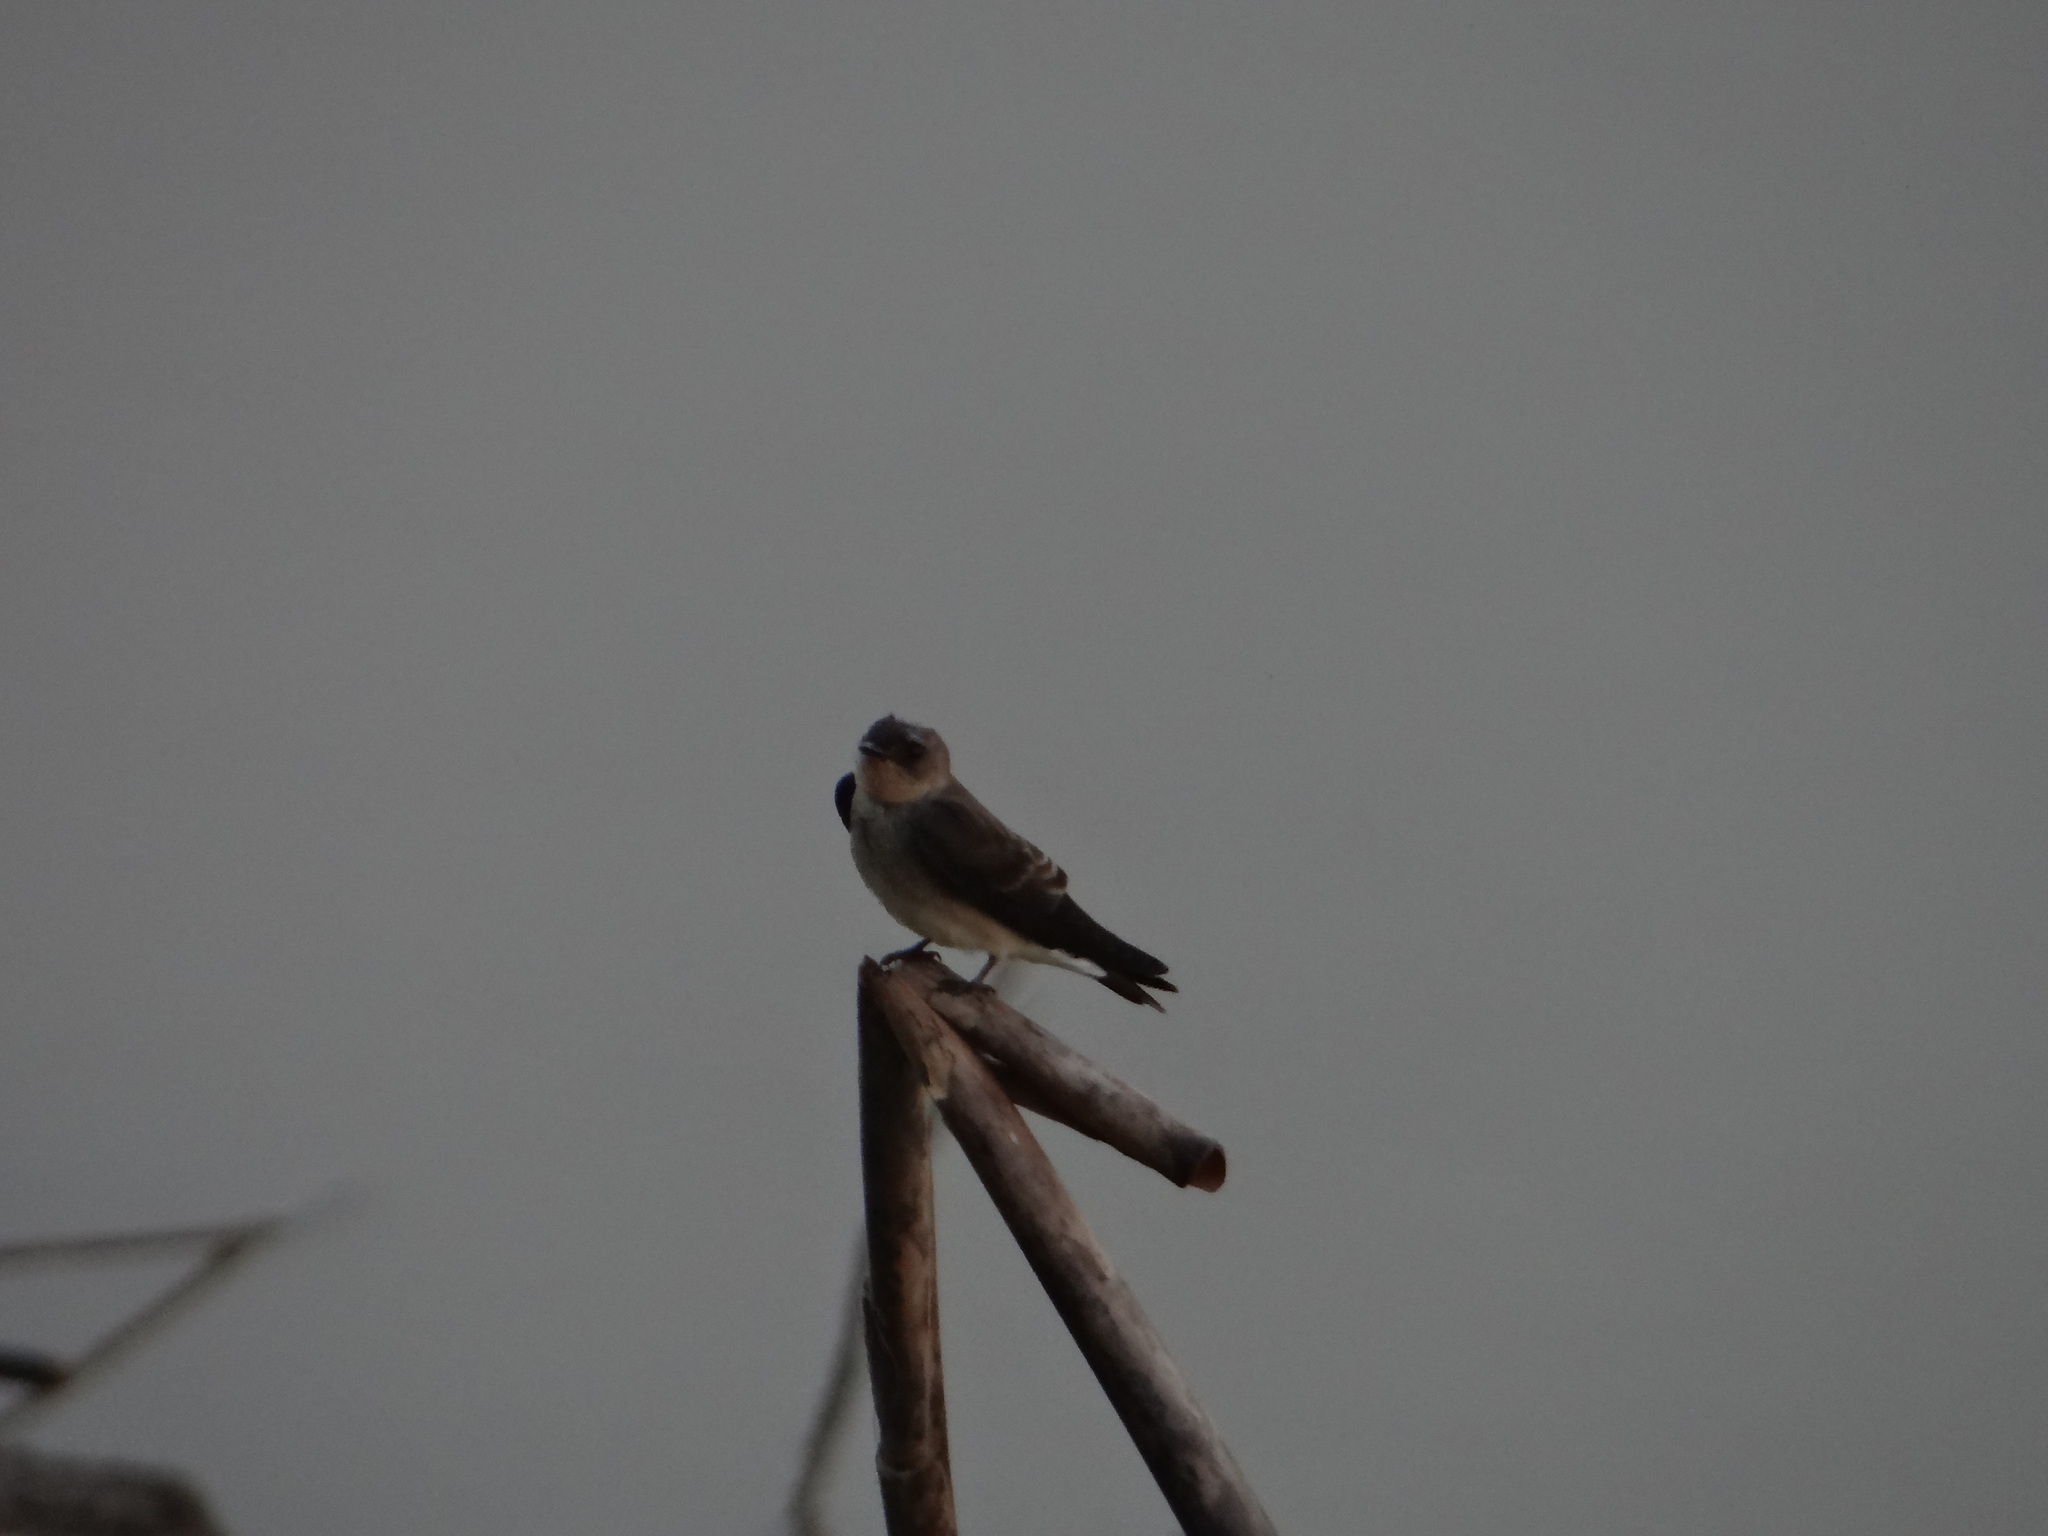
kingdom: Animalia
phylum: Chordata
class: Aves
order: Passeriformes
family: Hirundinidae
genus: Progne
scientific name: Progne tapera
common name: Brown-chested martin
